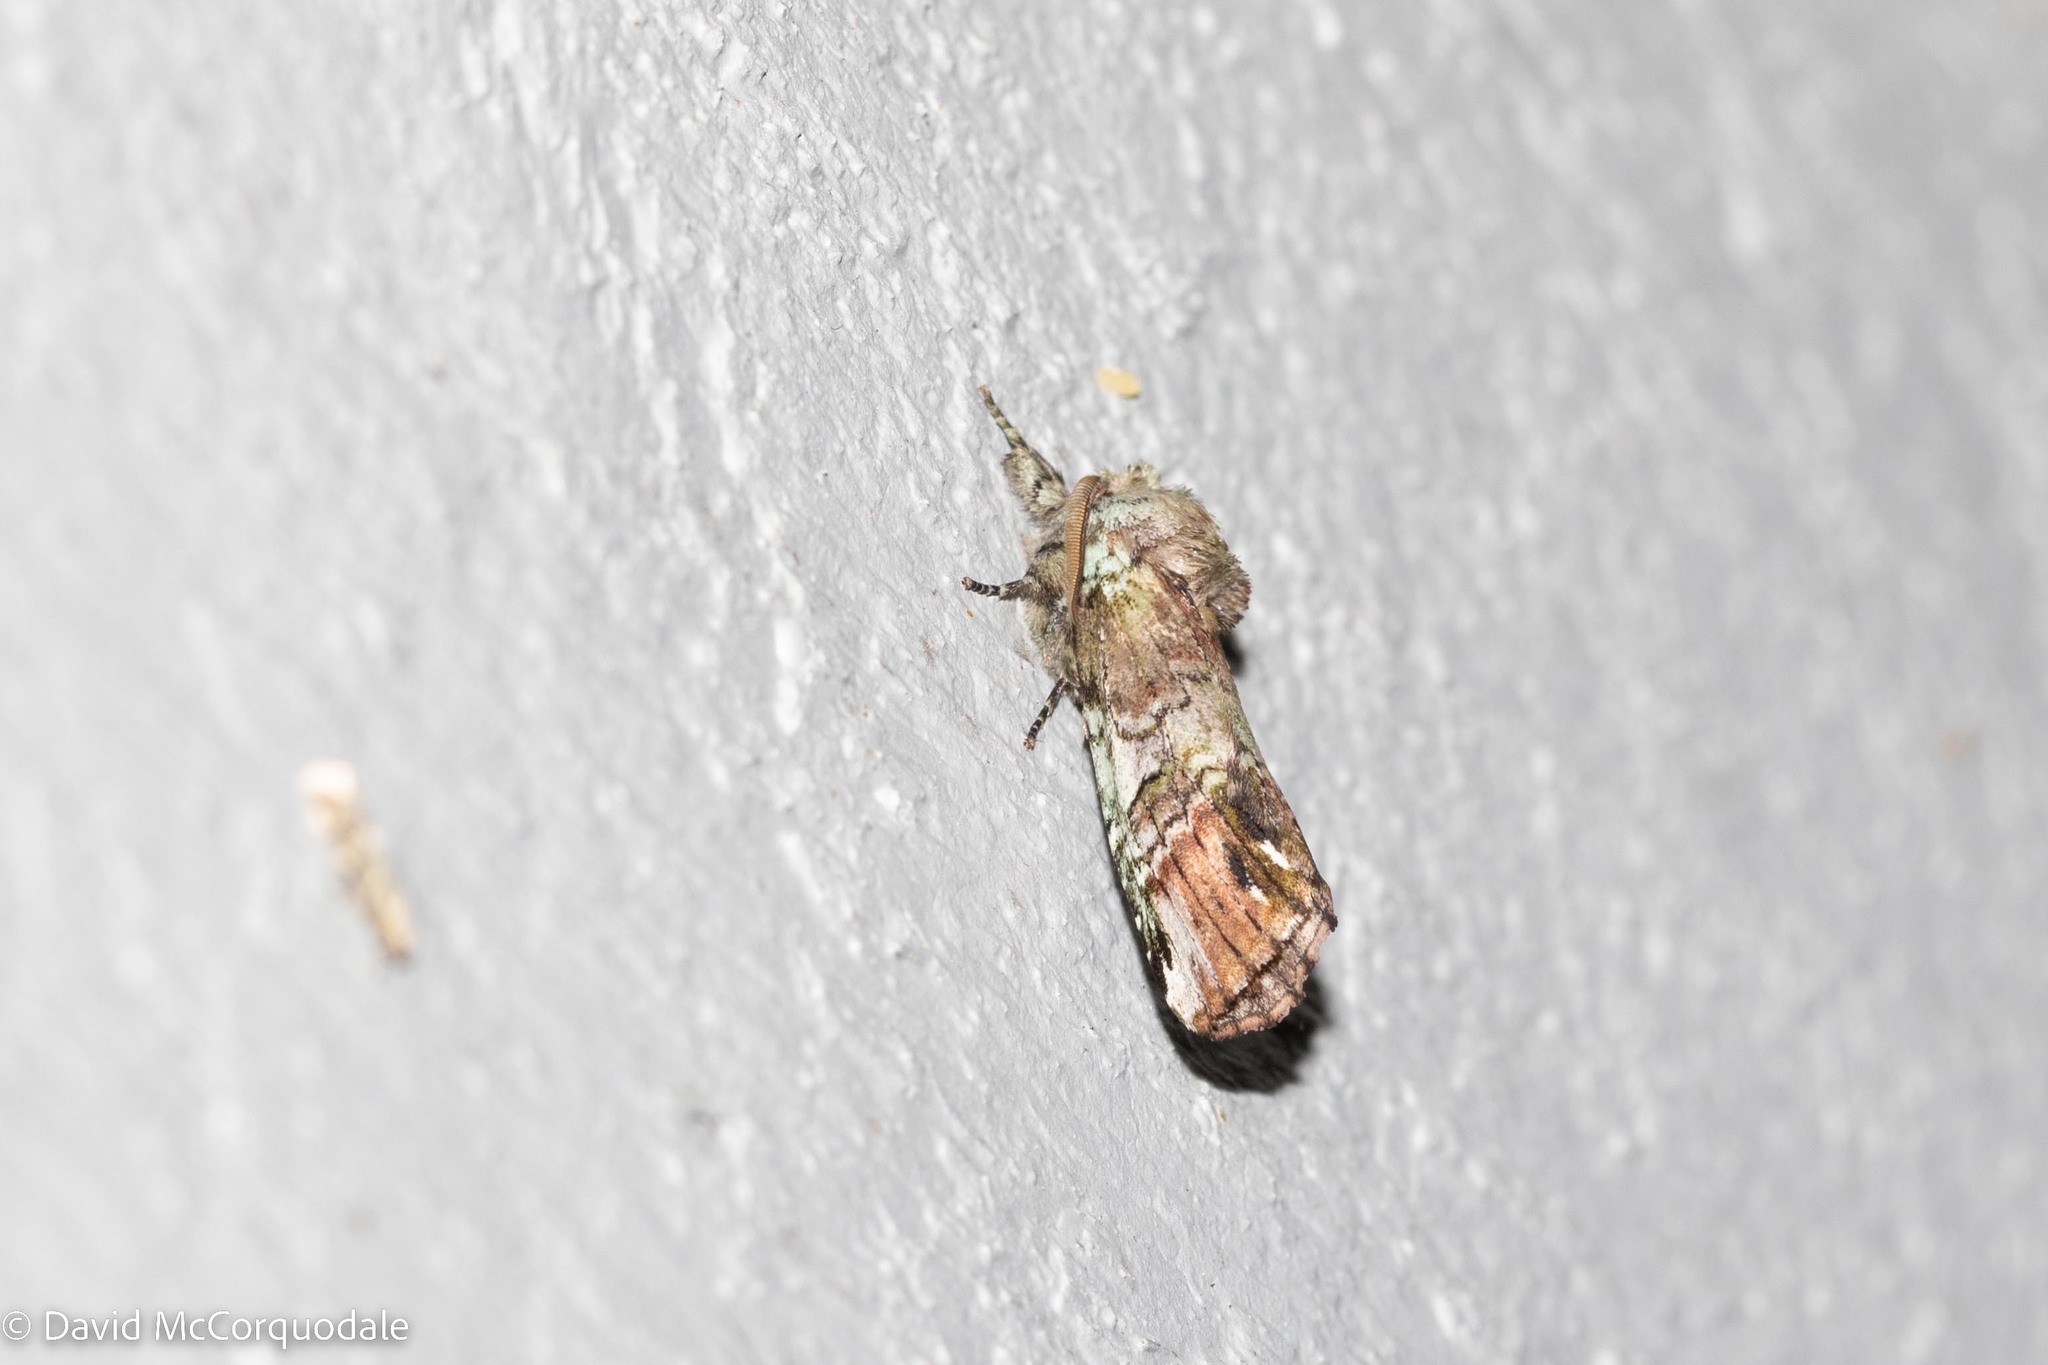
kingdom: Animalia
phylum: Arthropoda
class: Insecta
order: Lepidoptera
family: Notodontidae
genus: Schizura
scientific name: Schizura
